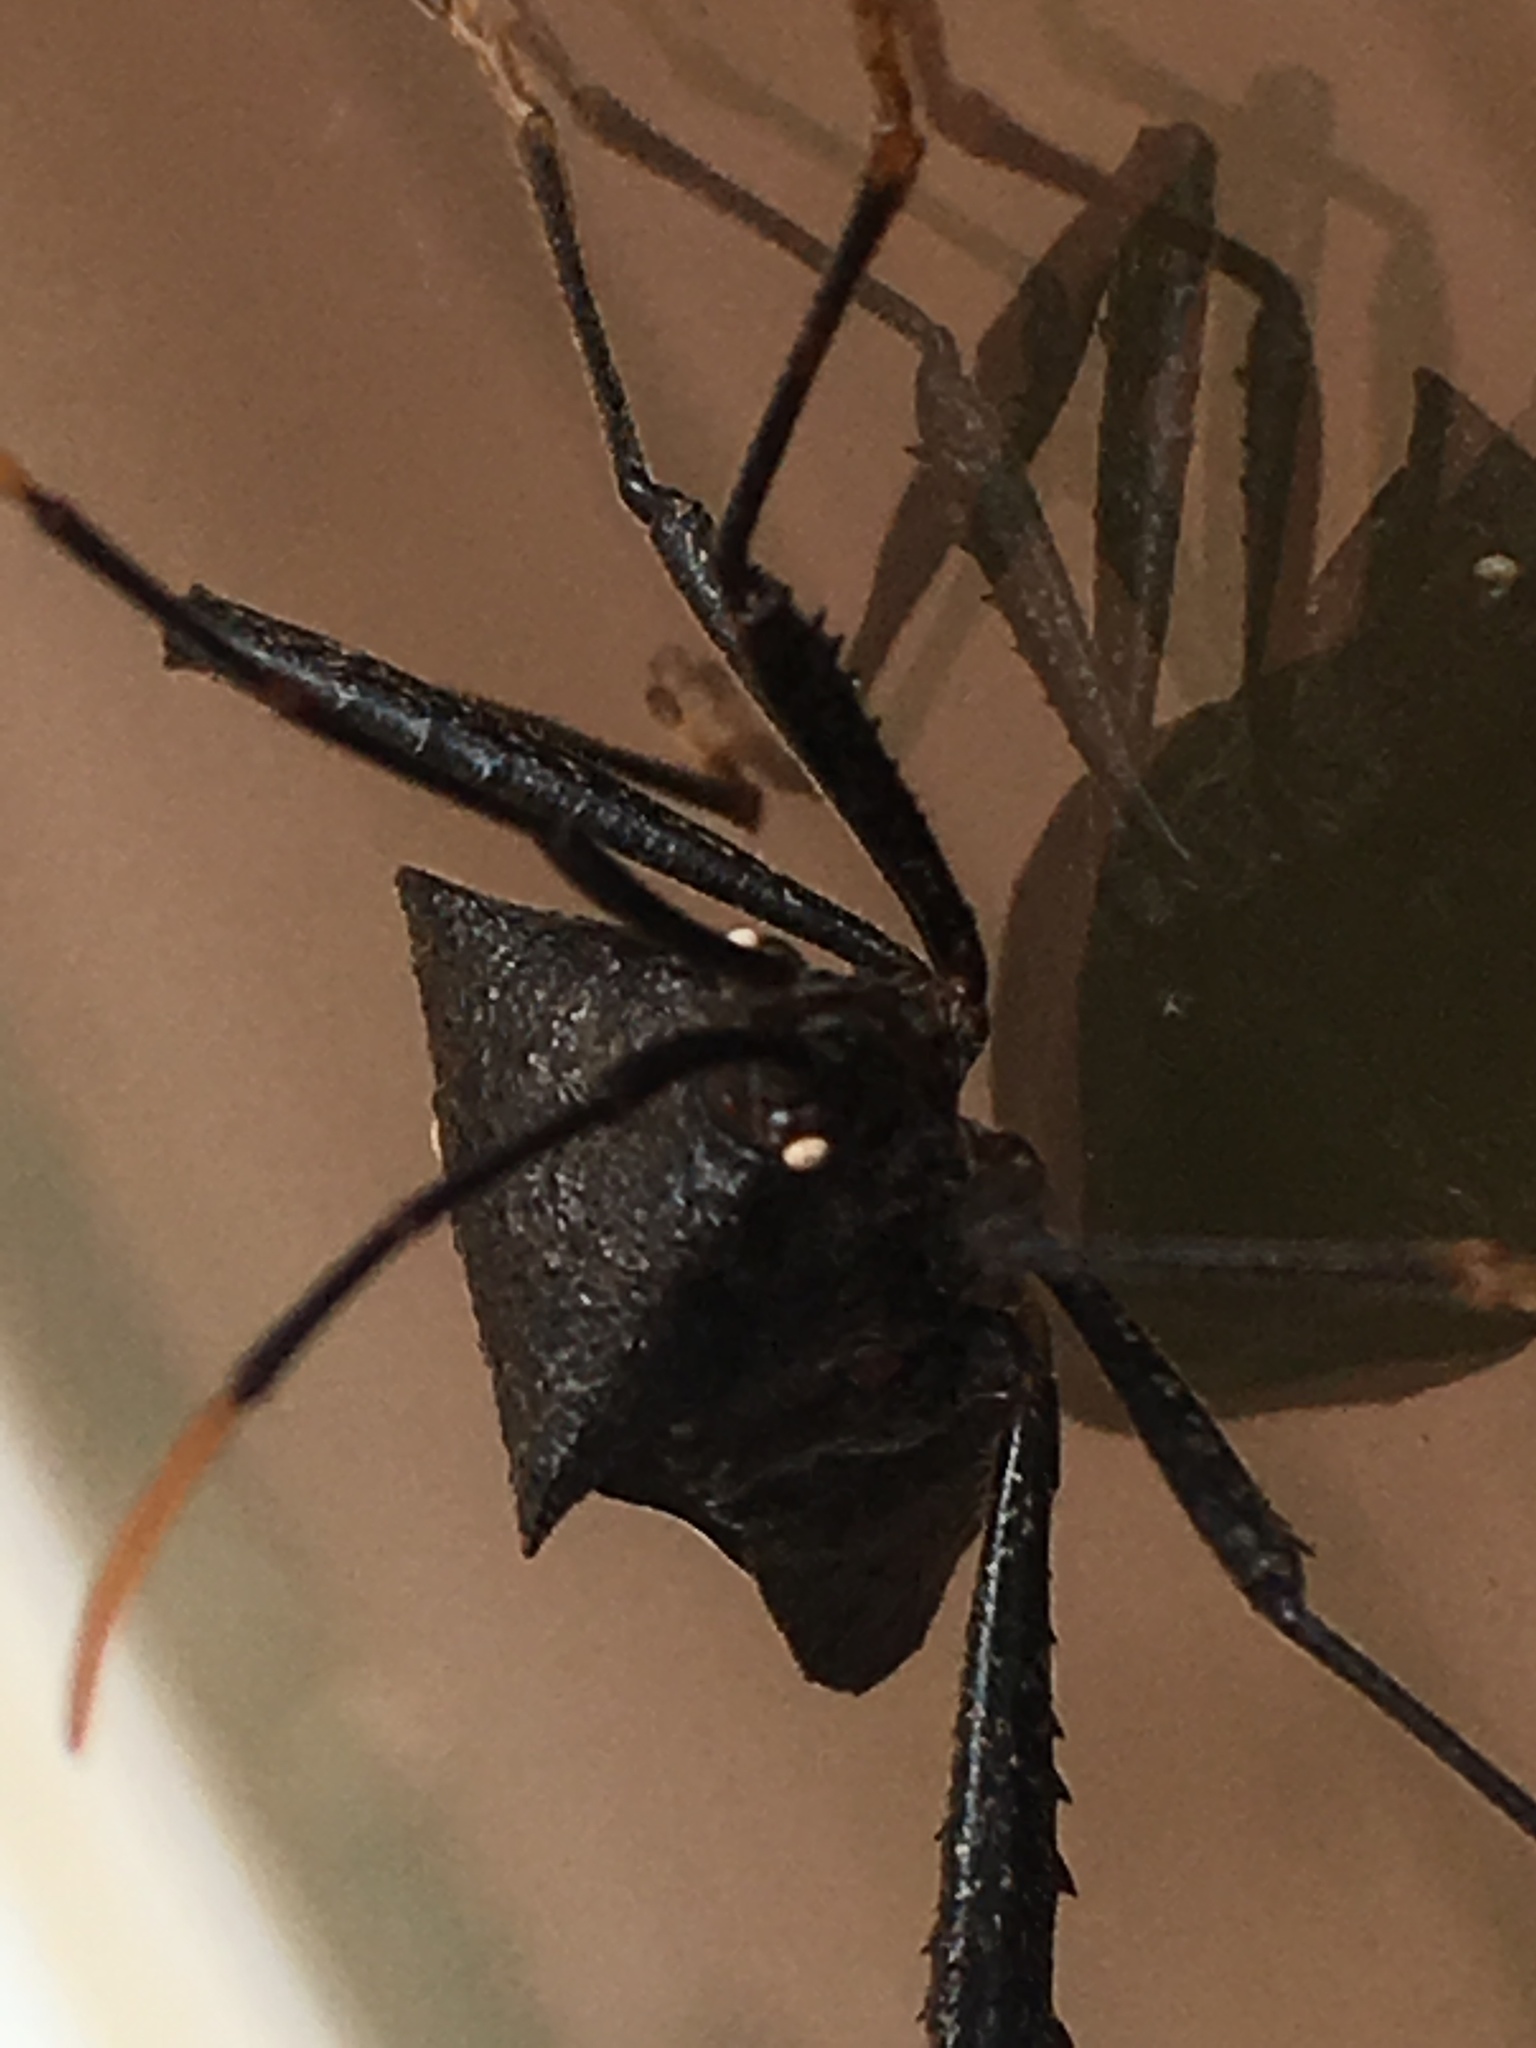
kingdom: Animalia
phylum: Arthropoda
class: Insecta
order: Hemiptera
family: Coreidae
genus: Acanthocephala
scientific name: Acanthocephala terminalis
